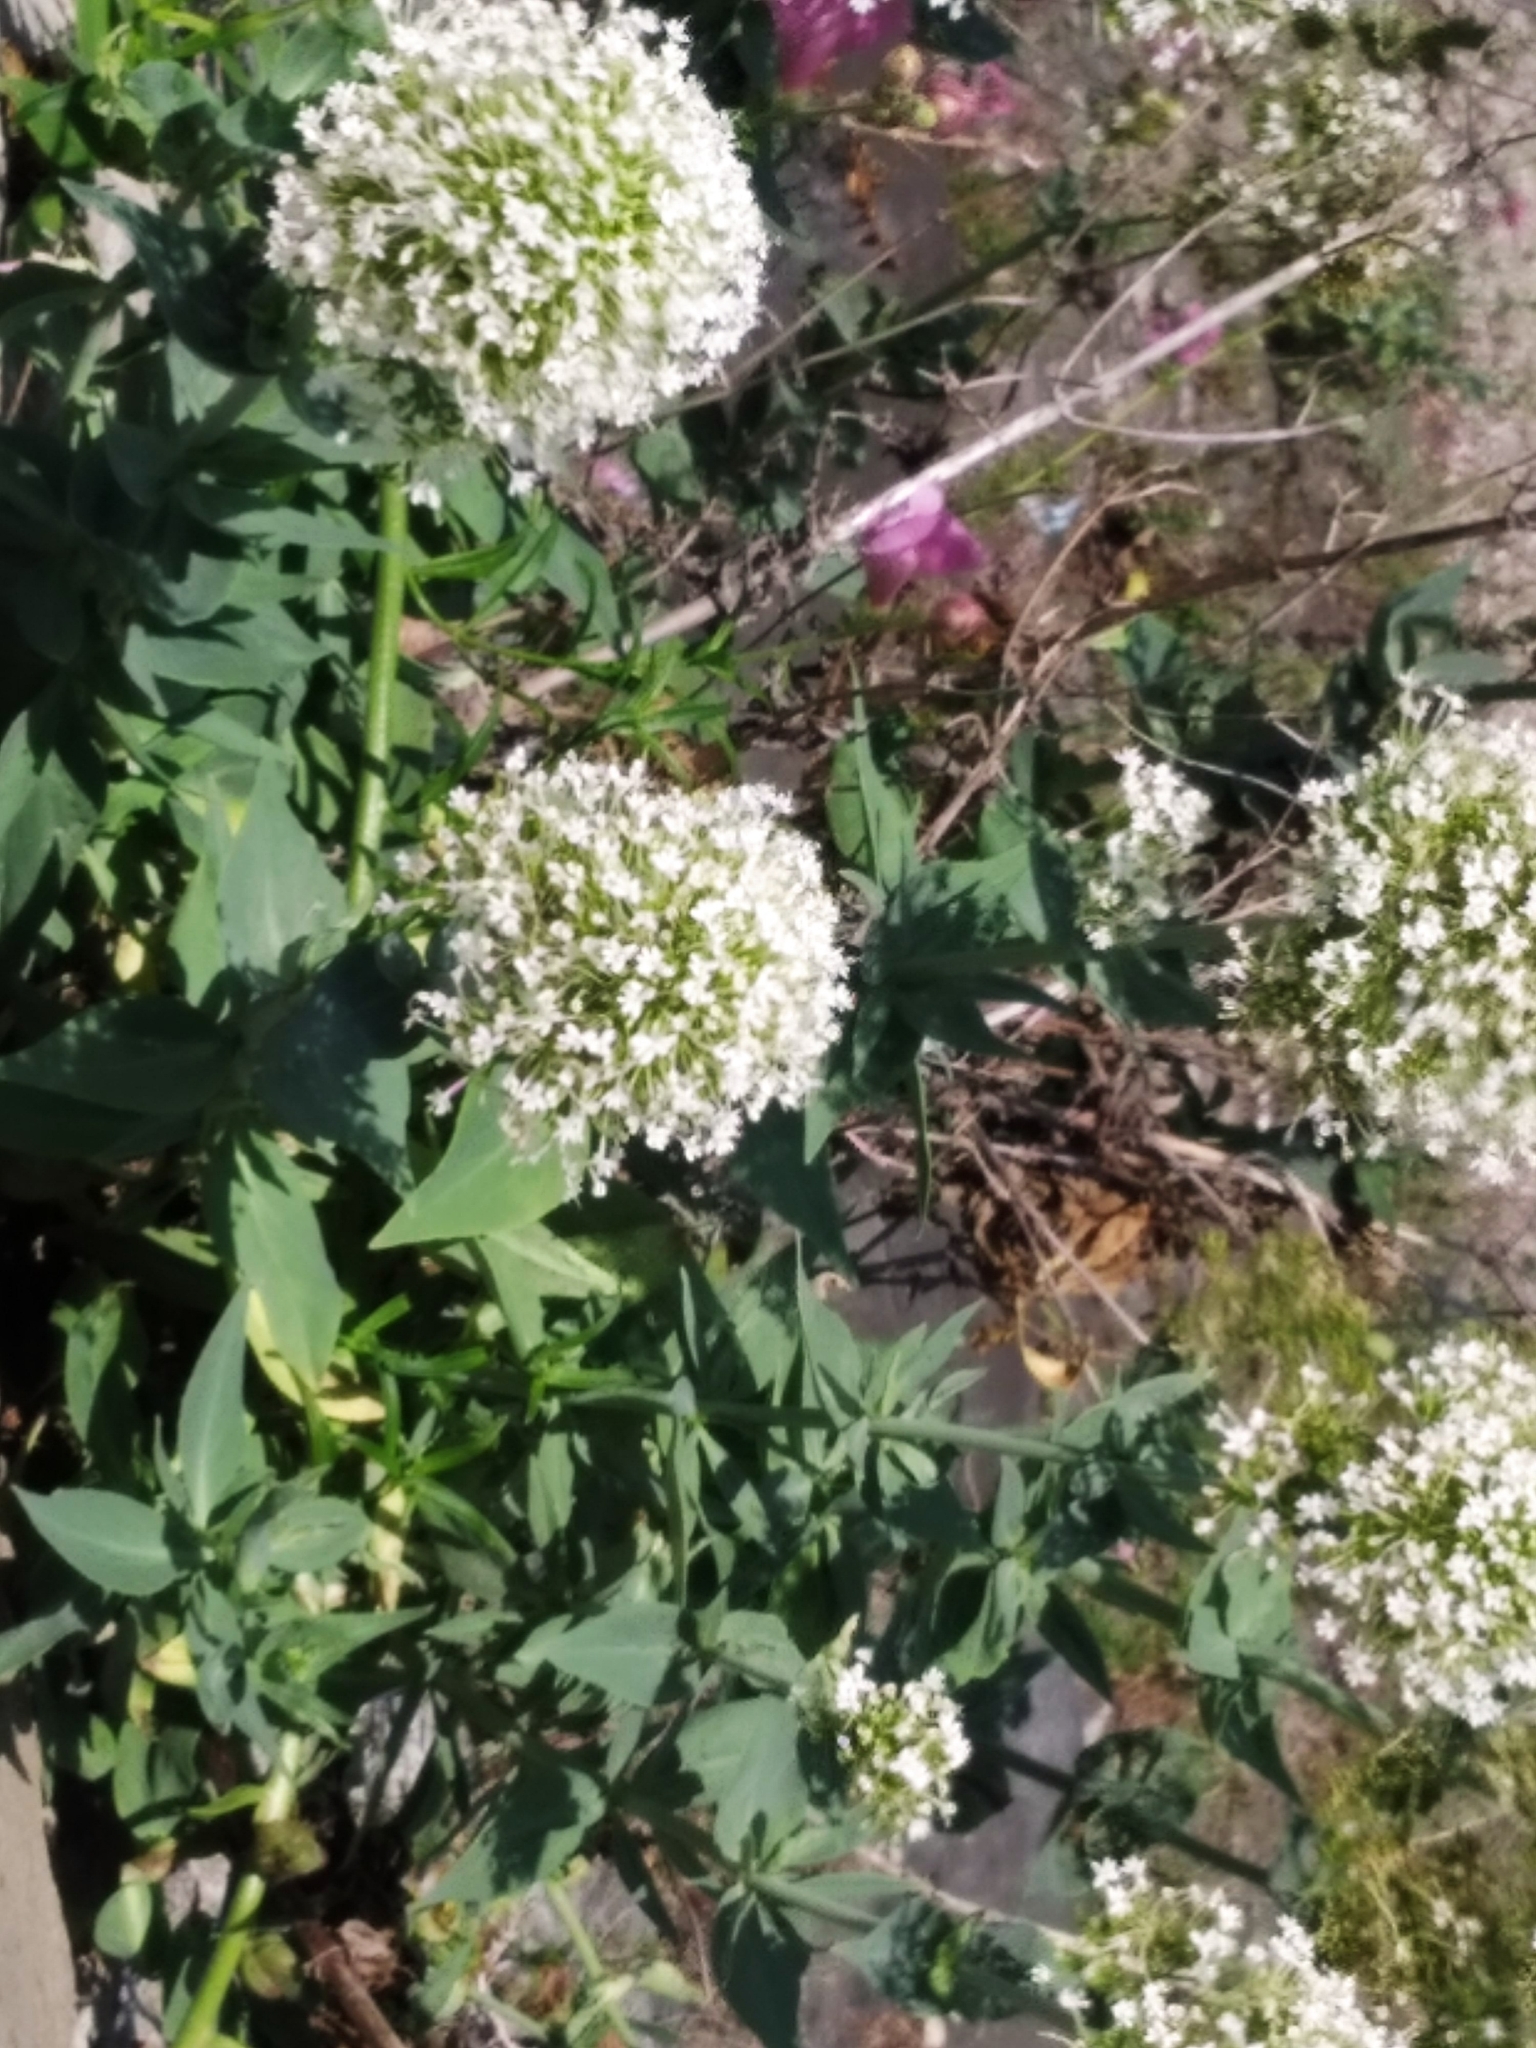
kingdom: Plantae
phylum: Tracheophyta
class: Magnoliopsida
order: Dipsacales
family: Caprifoliaceae
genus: Centranthus
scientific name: Centranthus ruber
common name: Red valerian
